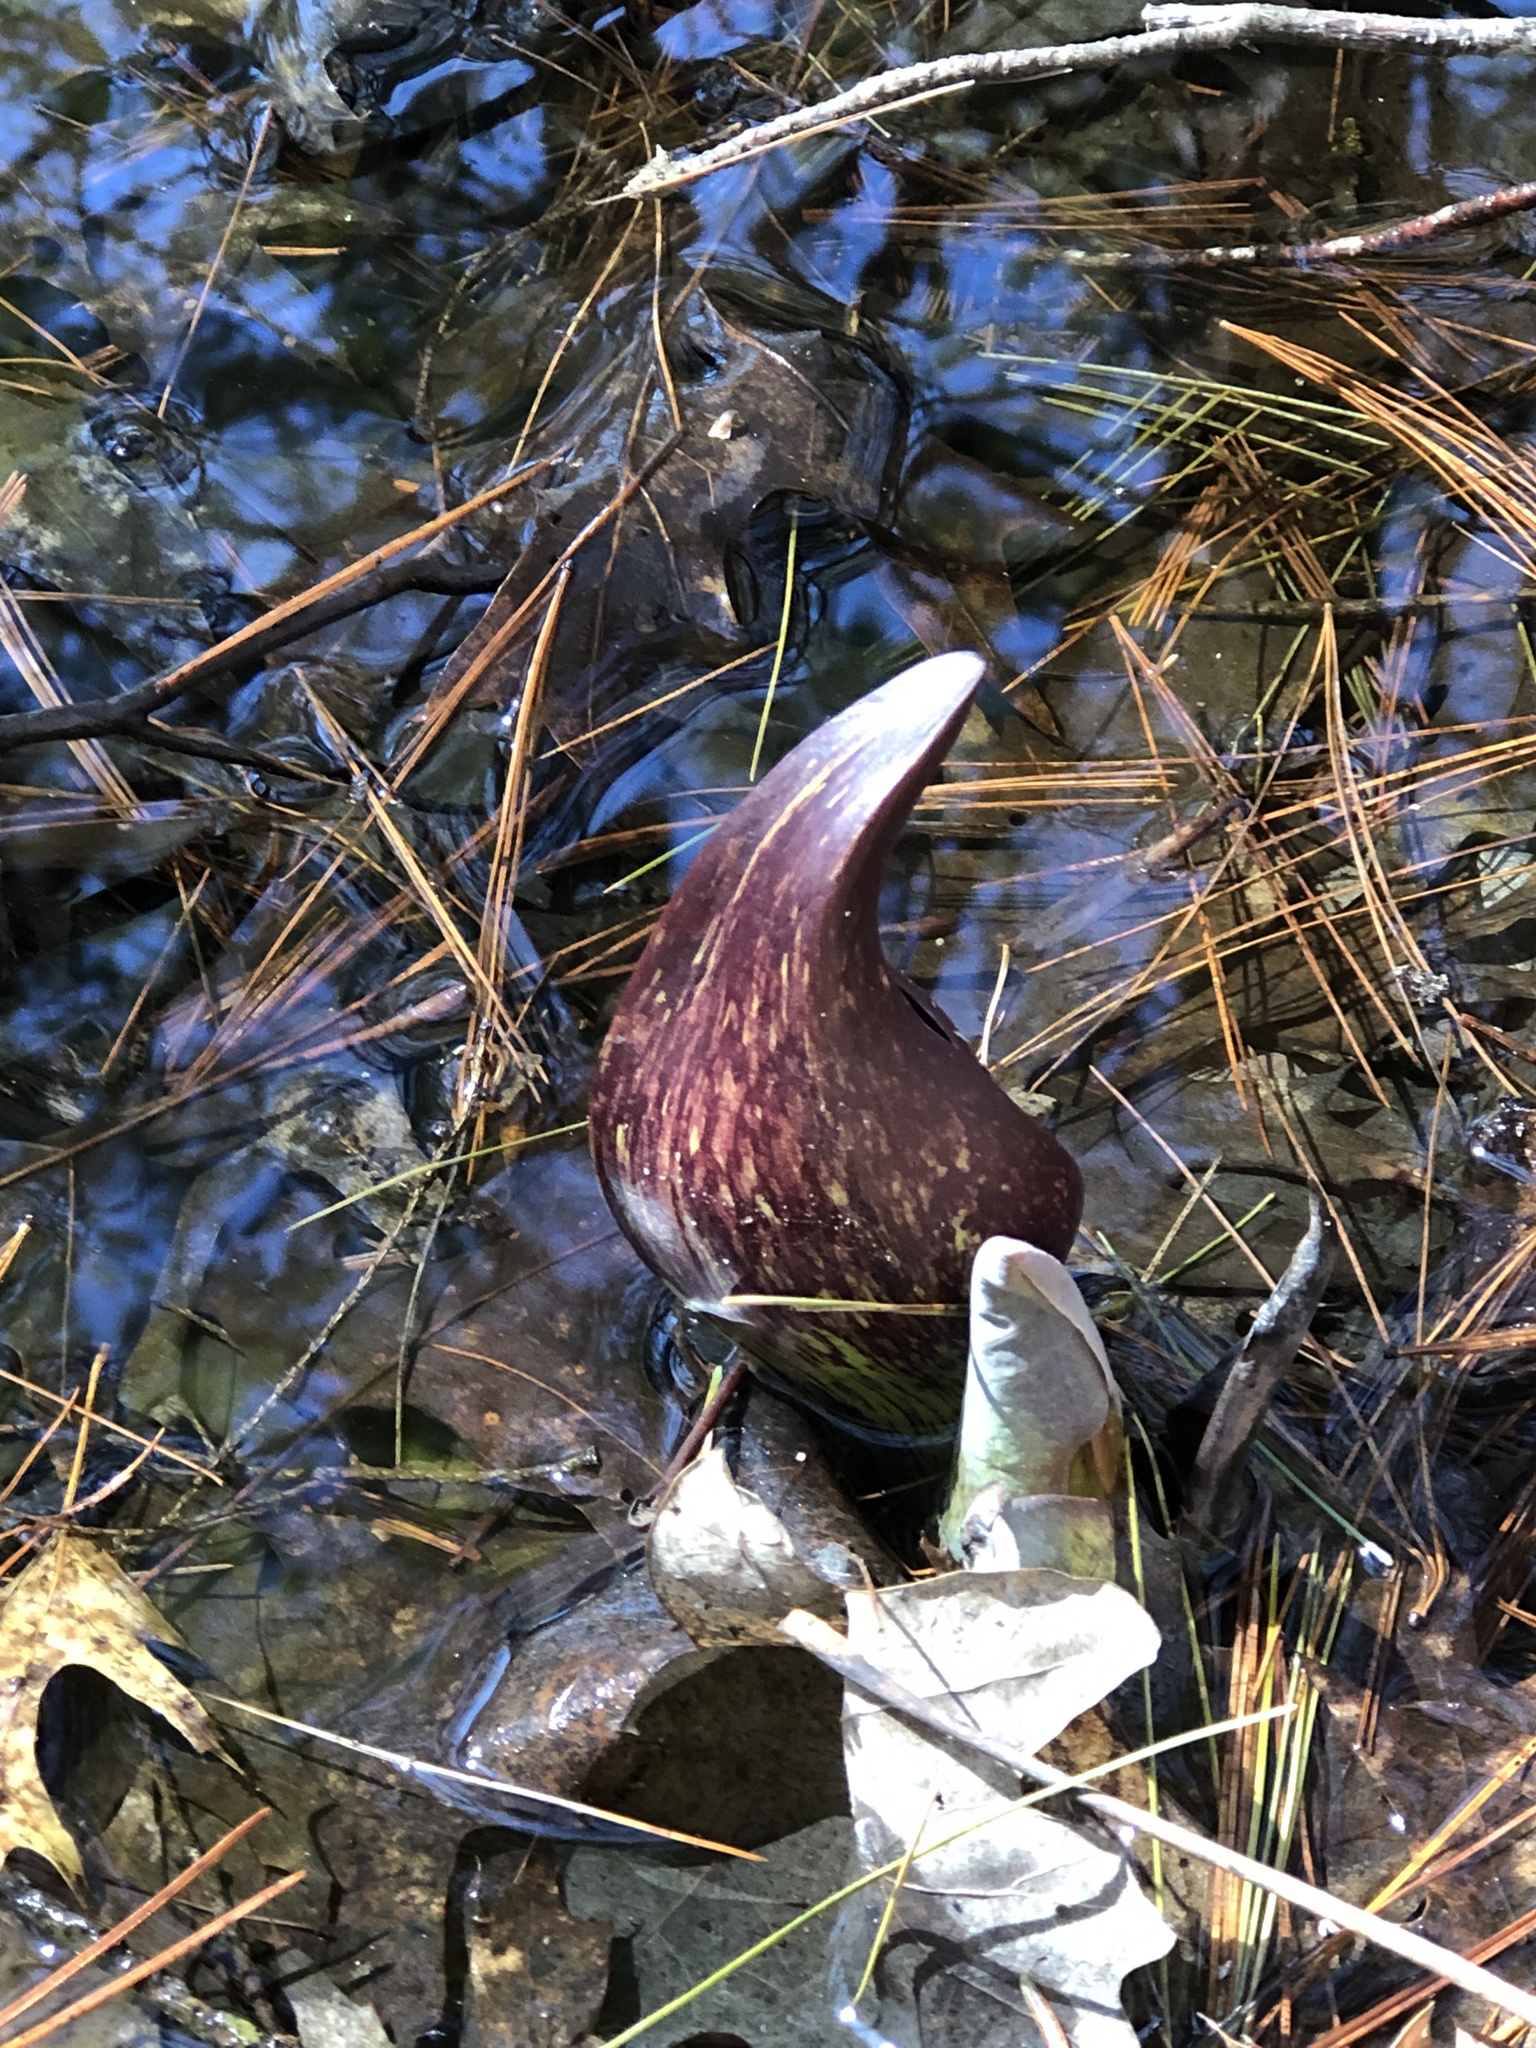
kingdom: Plantae
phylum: Tracheophyta
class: Liliopsida
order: Alismatales
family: Araceae
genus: Symplocarpus
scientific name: Symplocarpus foetidus
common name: Eastern skunk cabbage
